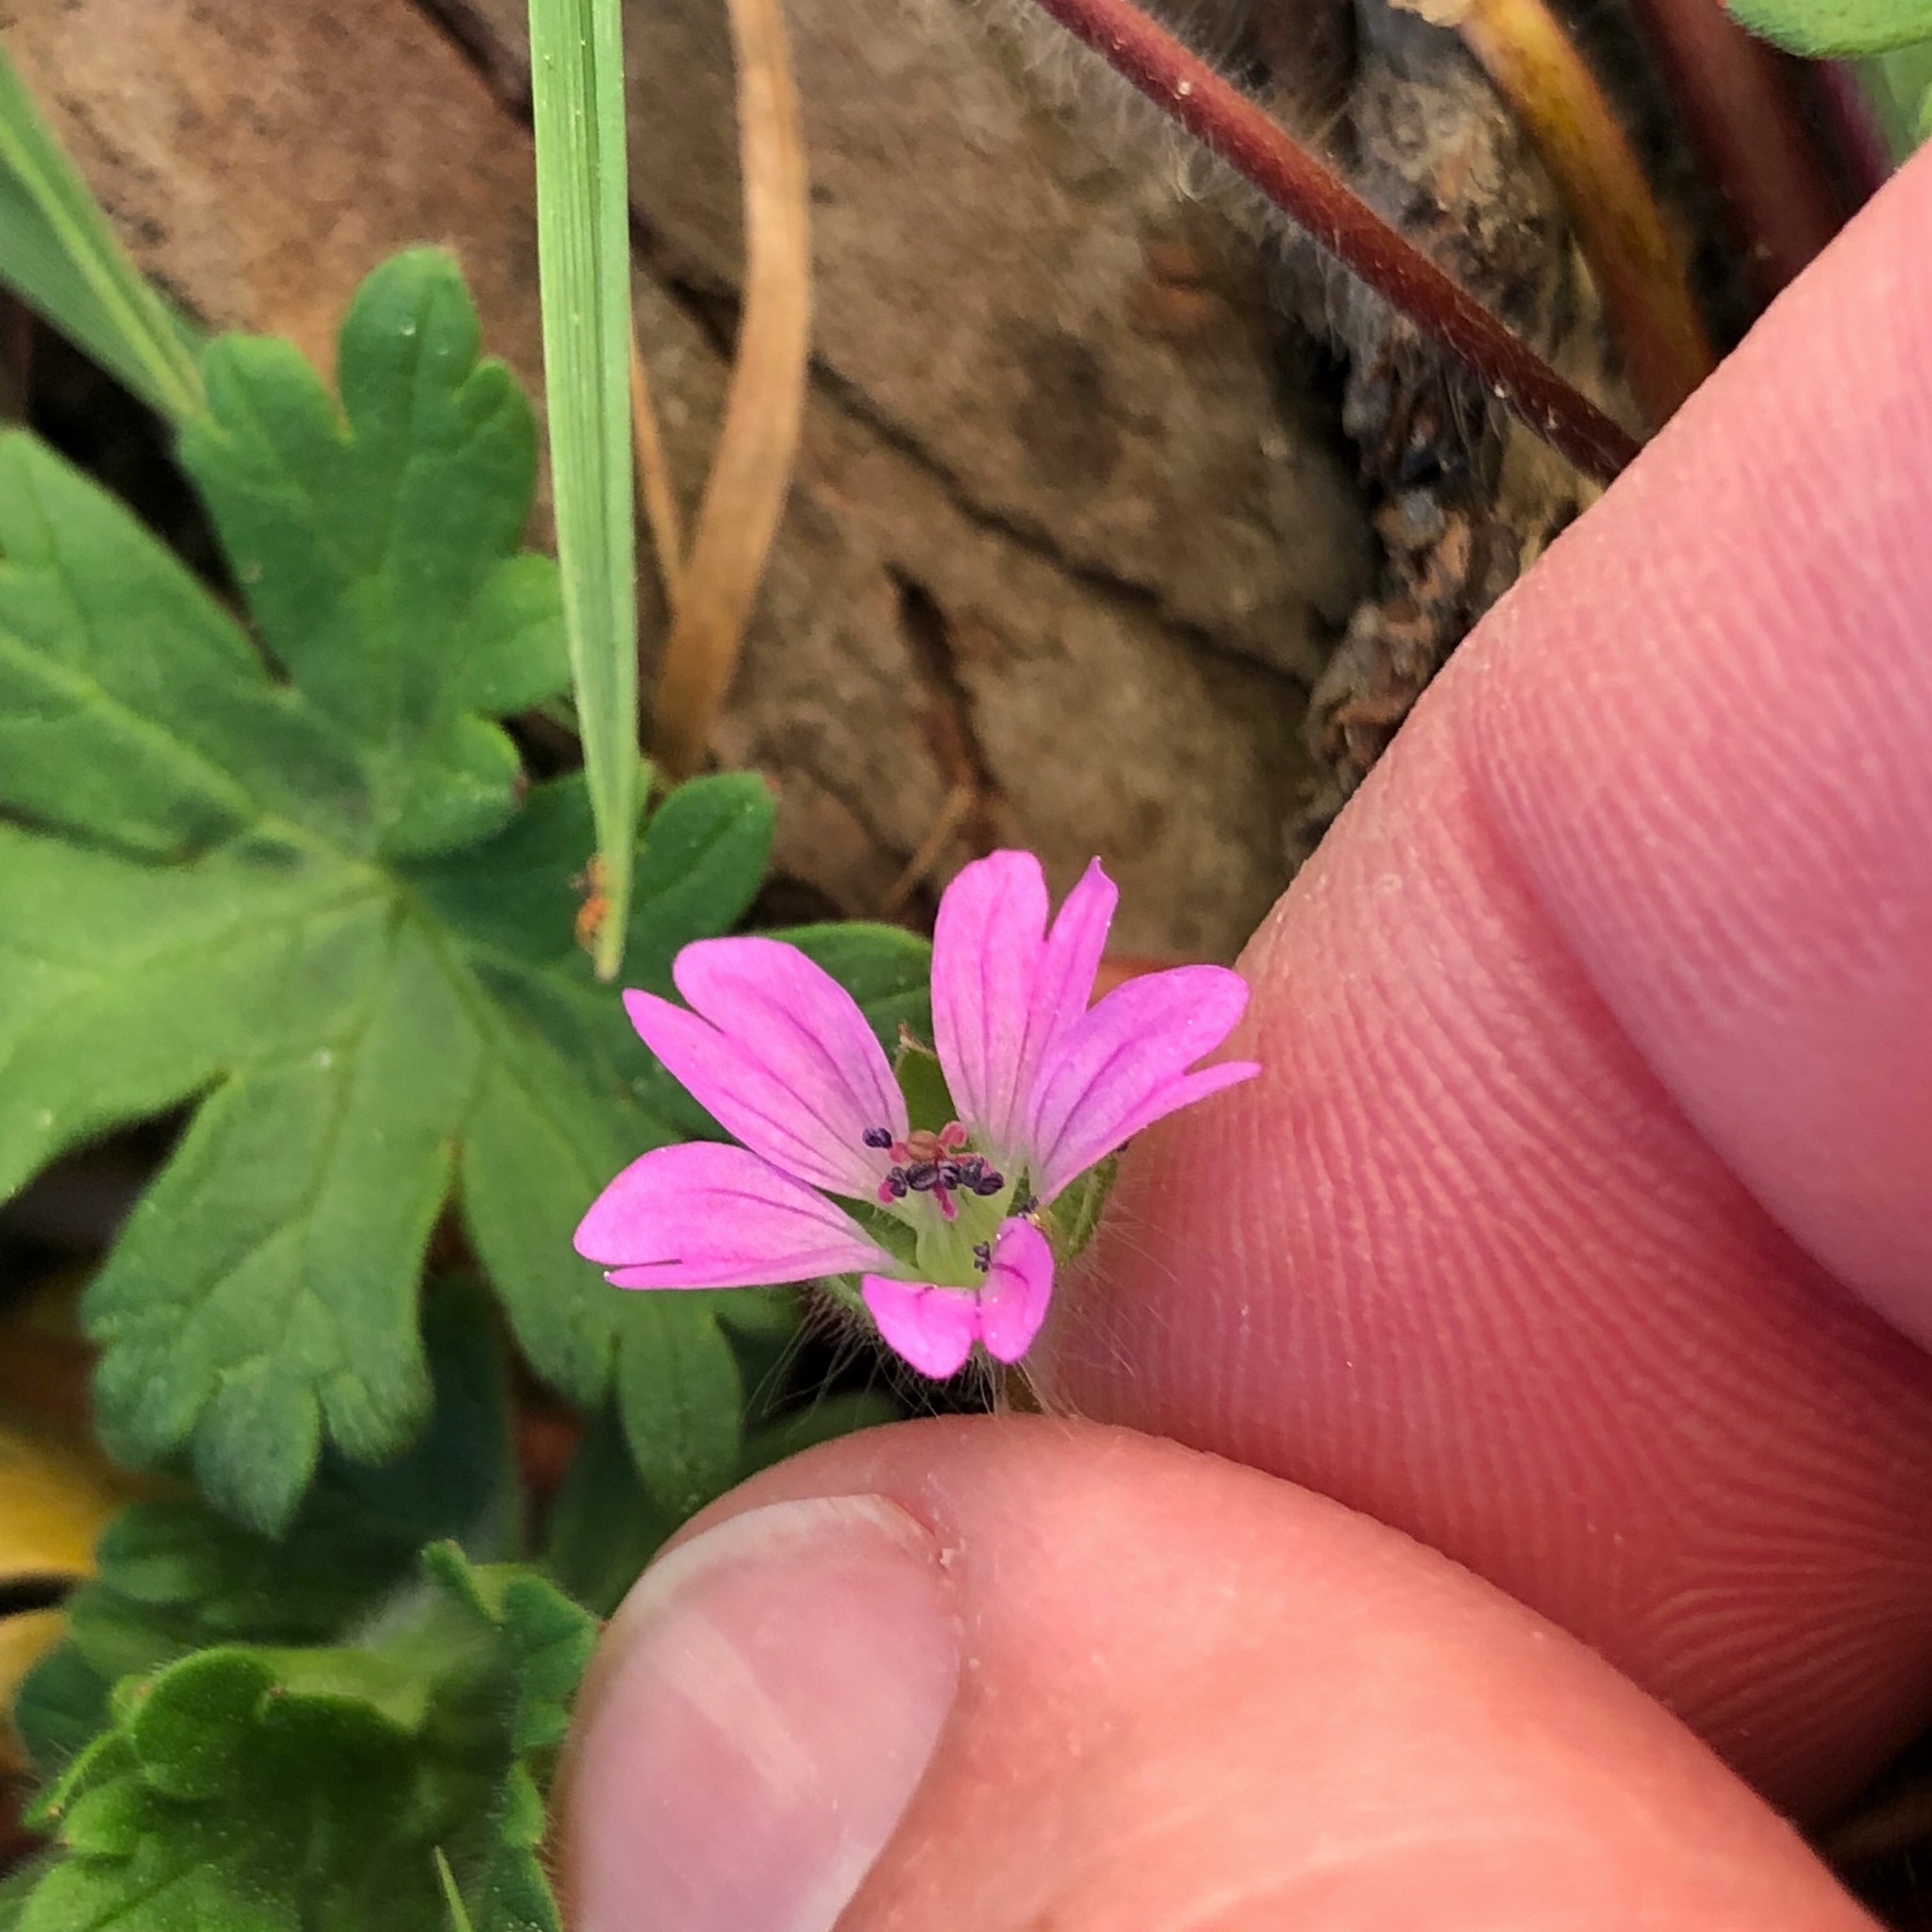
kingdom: Plantae
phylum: Tracheophyta
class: Magnoliopsida
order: Geraniales
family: Geraniaceae
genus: Geranium
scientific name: Geranium molle
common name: Dove's-foot crane's-bill
